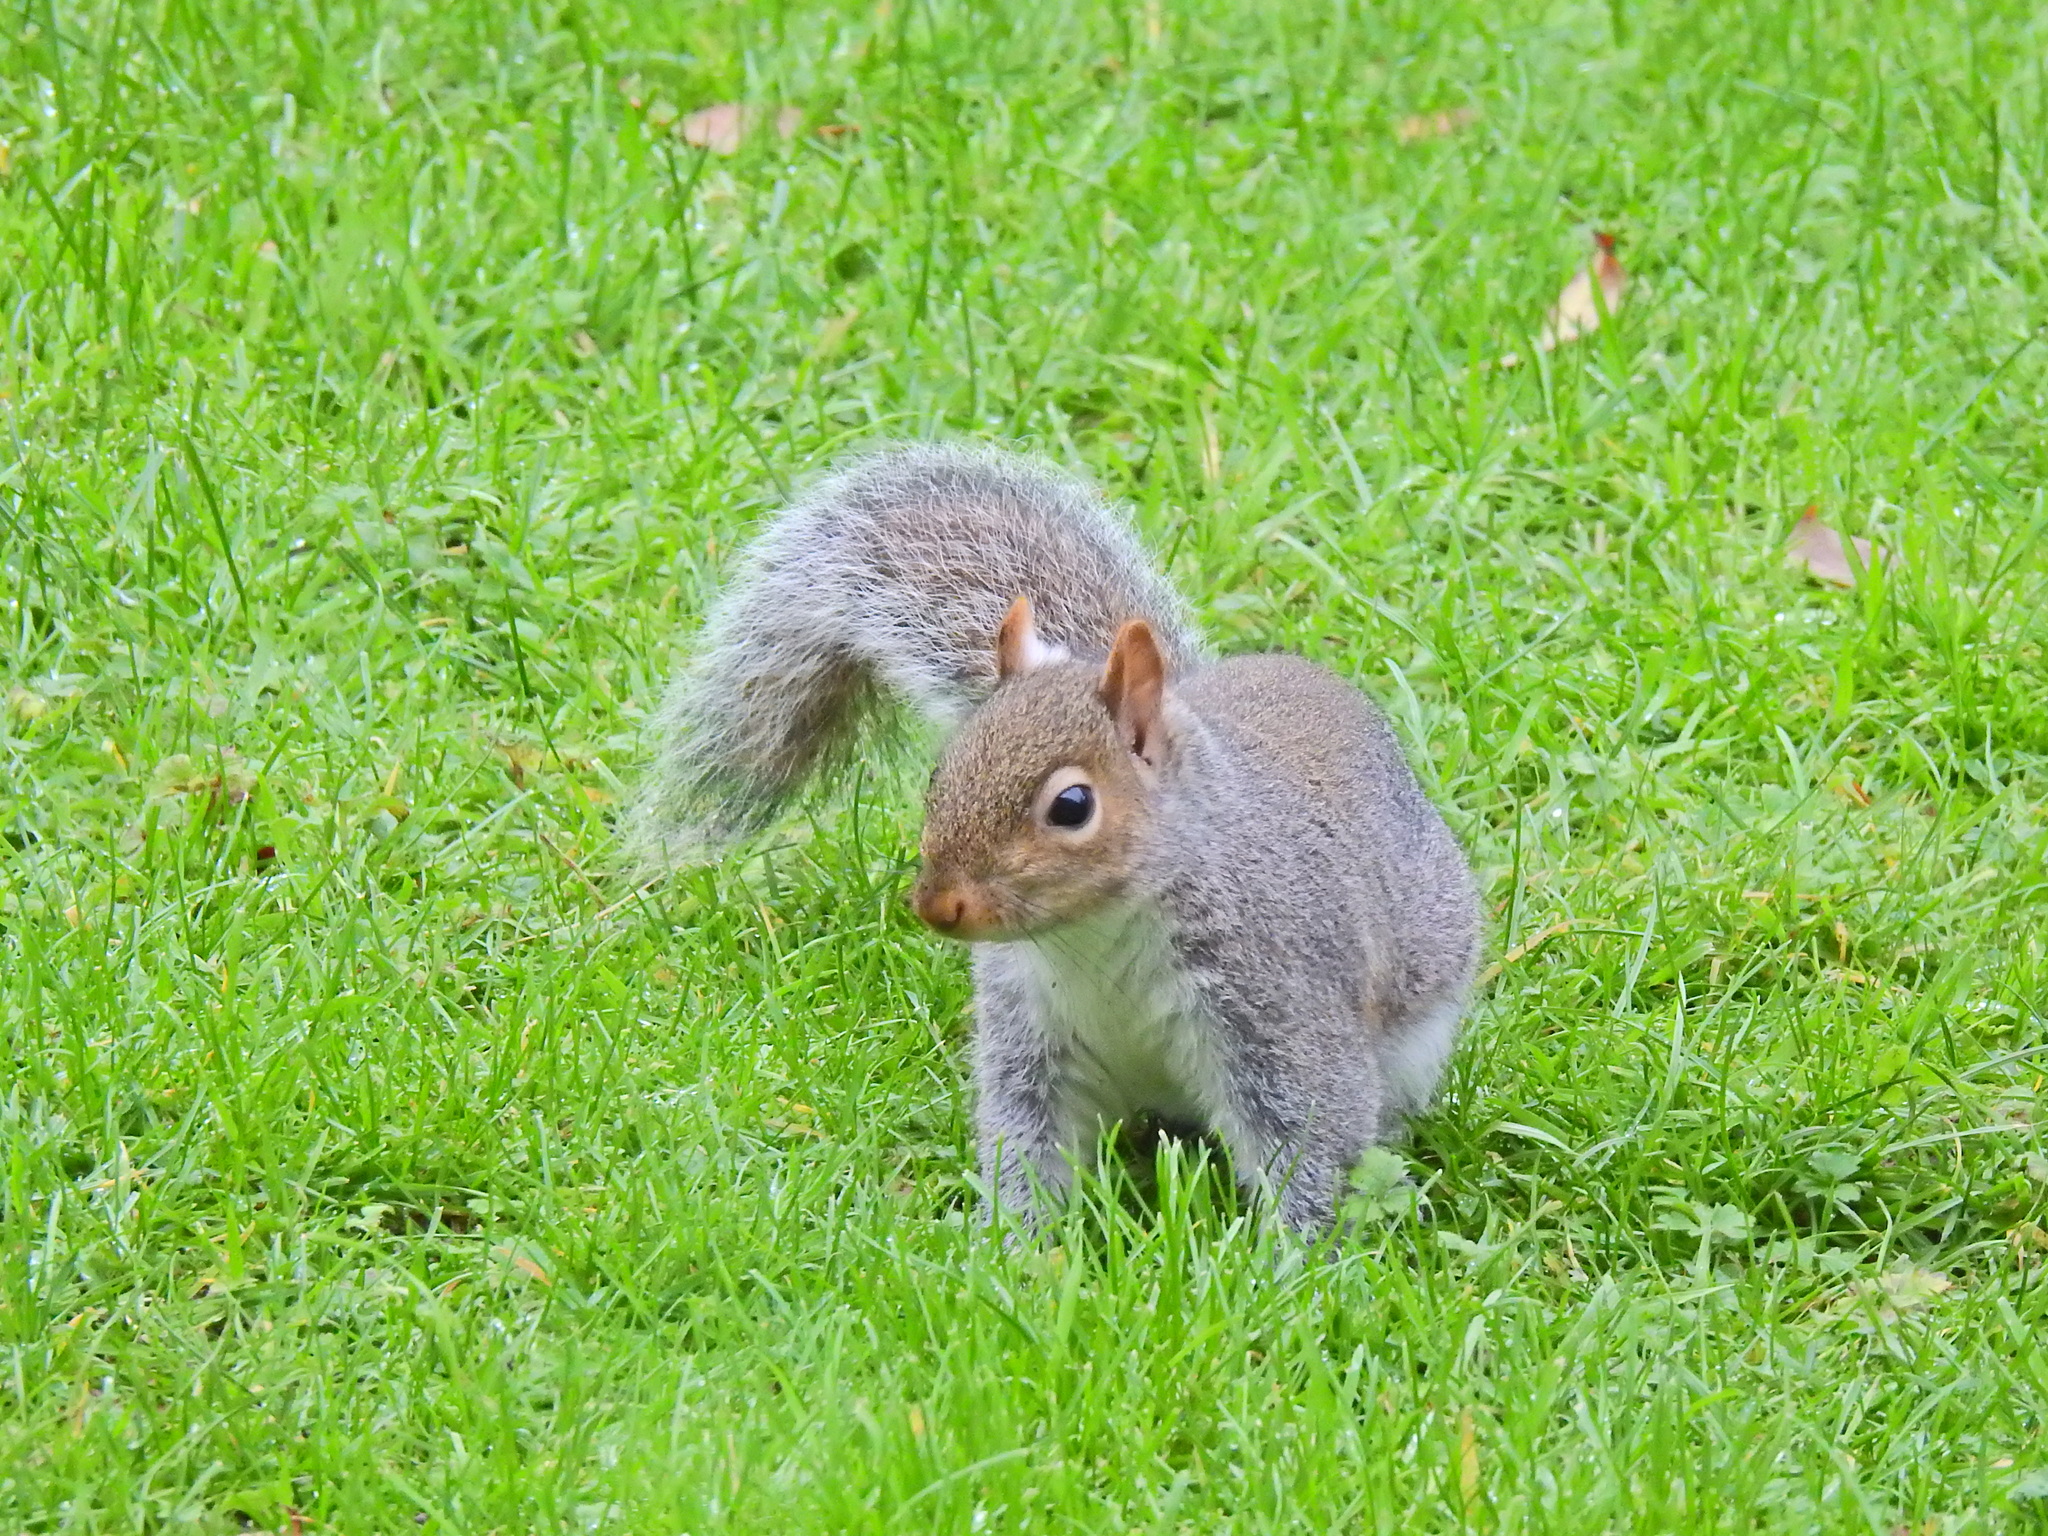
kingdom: Animalia
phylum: Chordata
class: Mammalia
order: Rodentia
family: Sciuridae
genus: Sciurus
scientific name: Sciurus carolinensis
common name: Eastern gray squirrel
